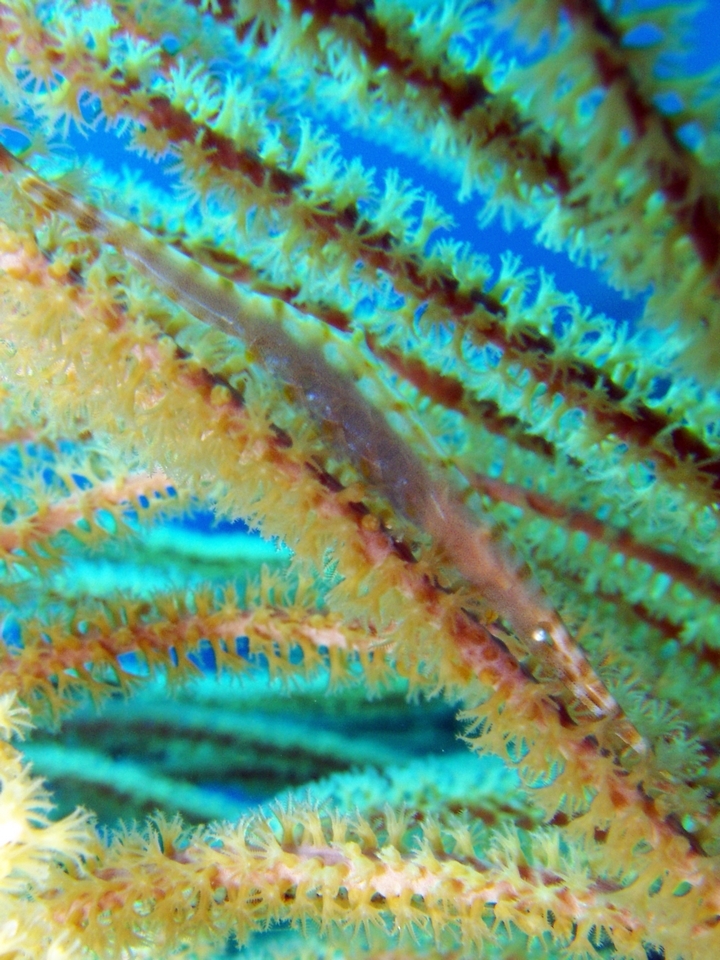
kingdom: Animalia
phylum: Arthropoda
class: Malacostraca
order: Decapoda
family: Hippolytidae
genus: Tozeuma
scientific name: Tozeuma carolinense
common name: Arrow shrimp
